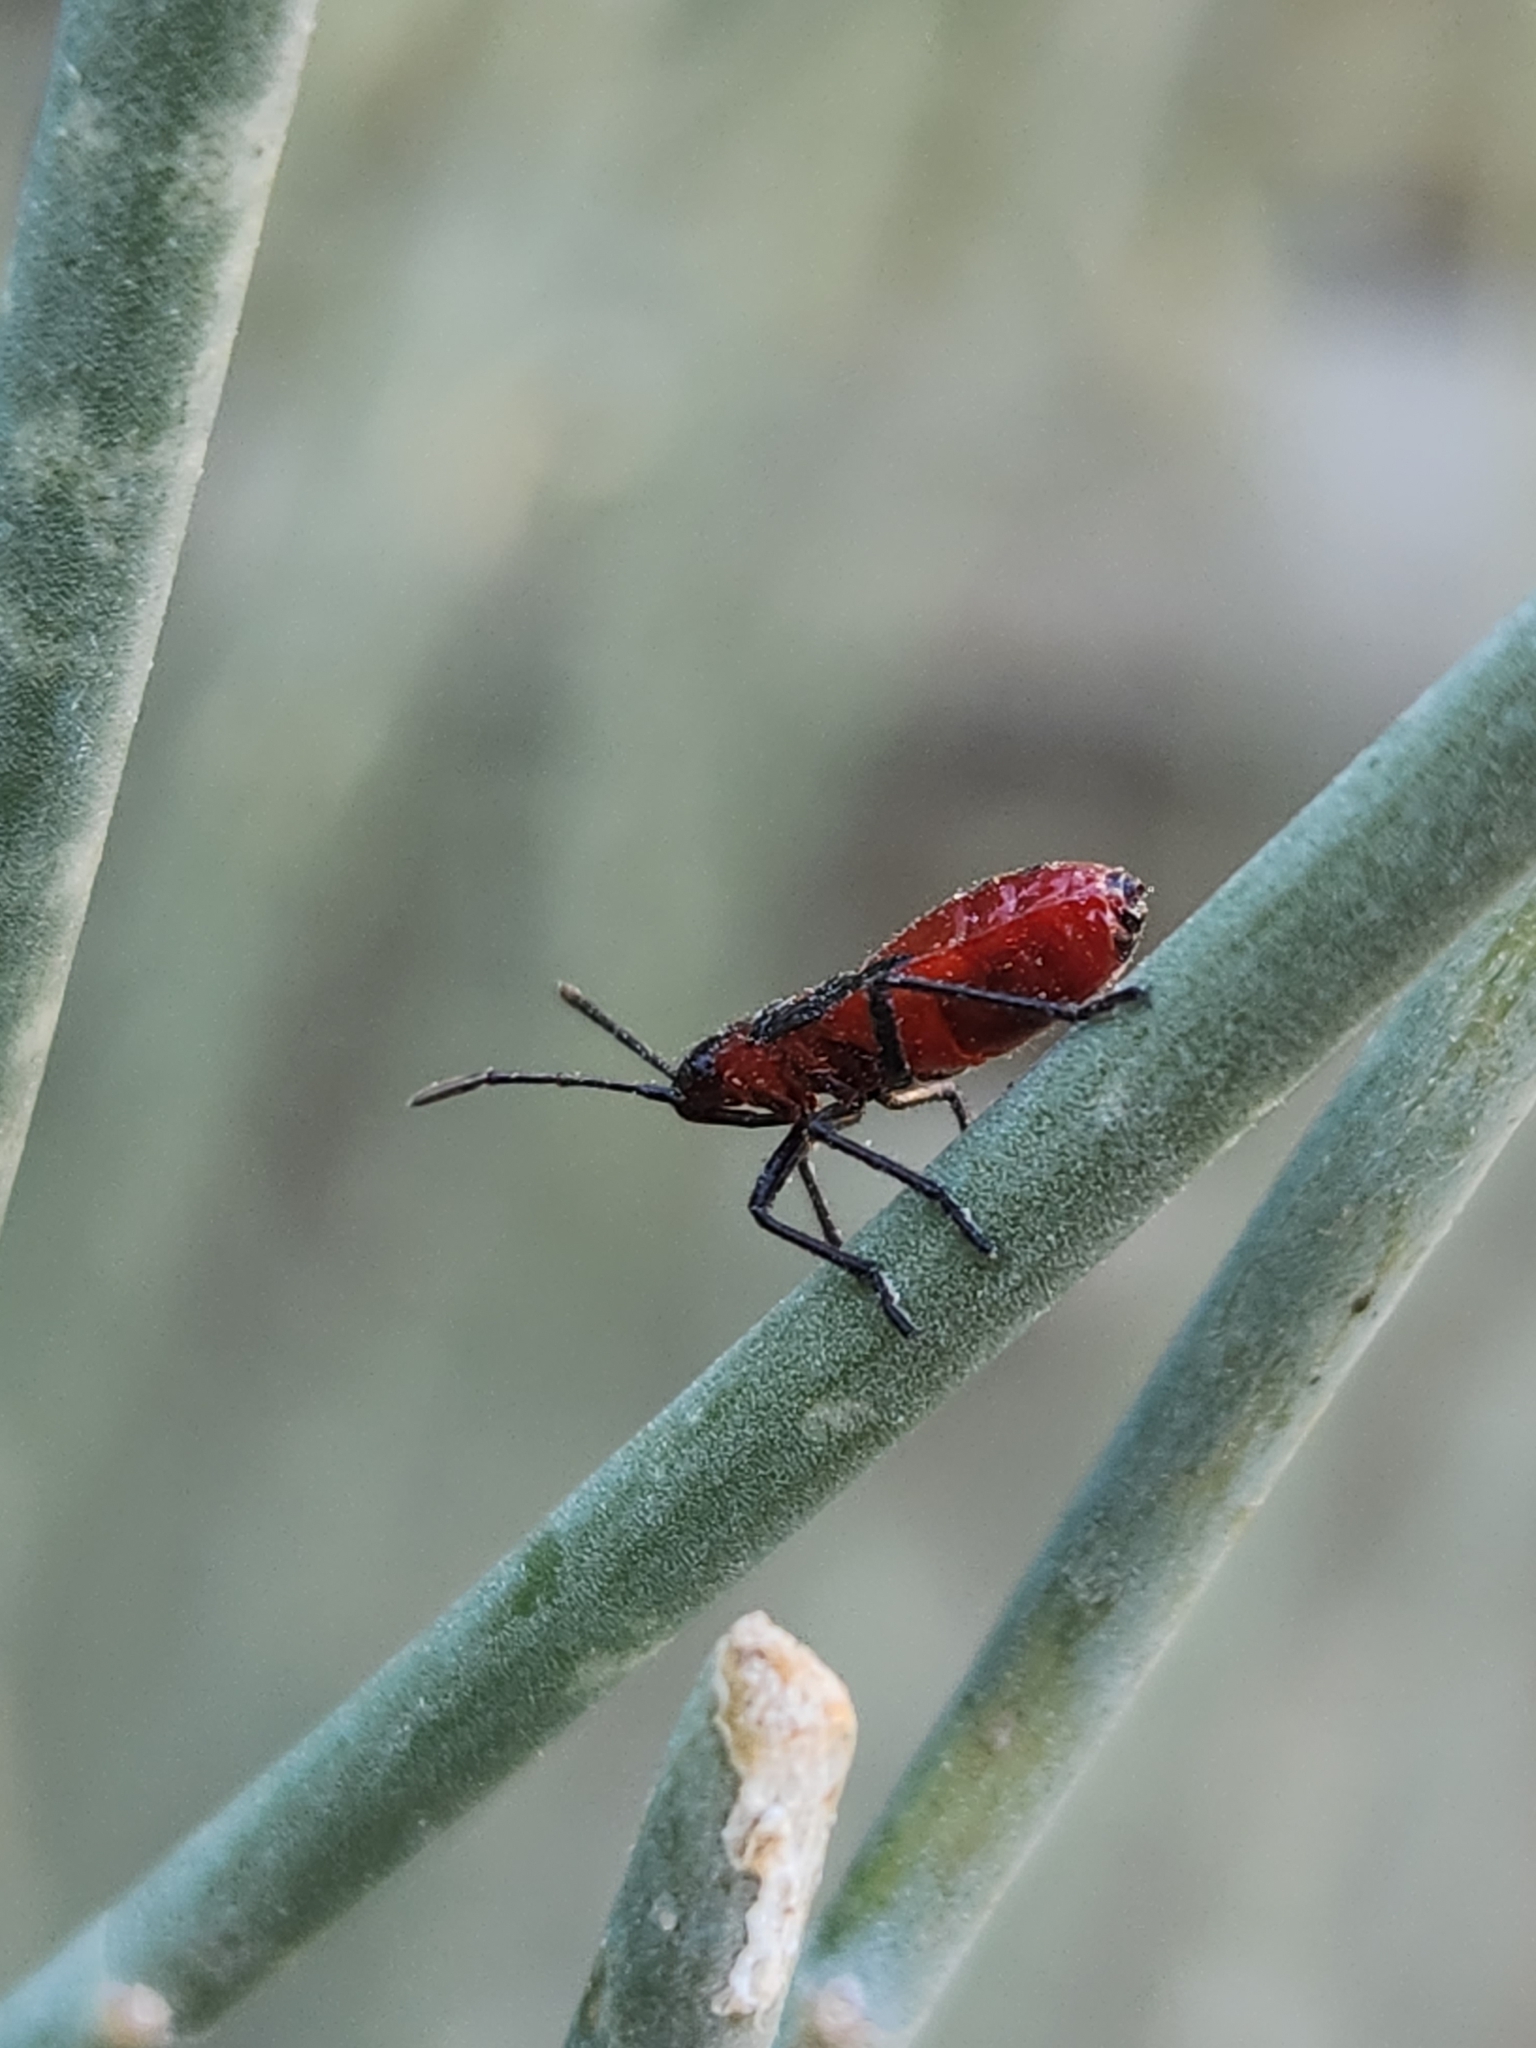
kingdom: Animalia
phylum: Arthropoda
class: Insecta
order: Hemiptera
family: Lygaeidae
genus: Oncopeltus
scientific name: Oncopeltus sanguinolentus
